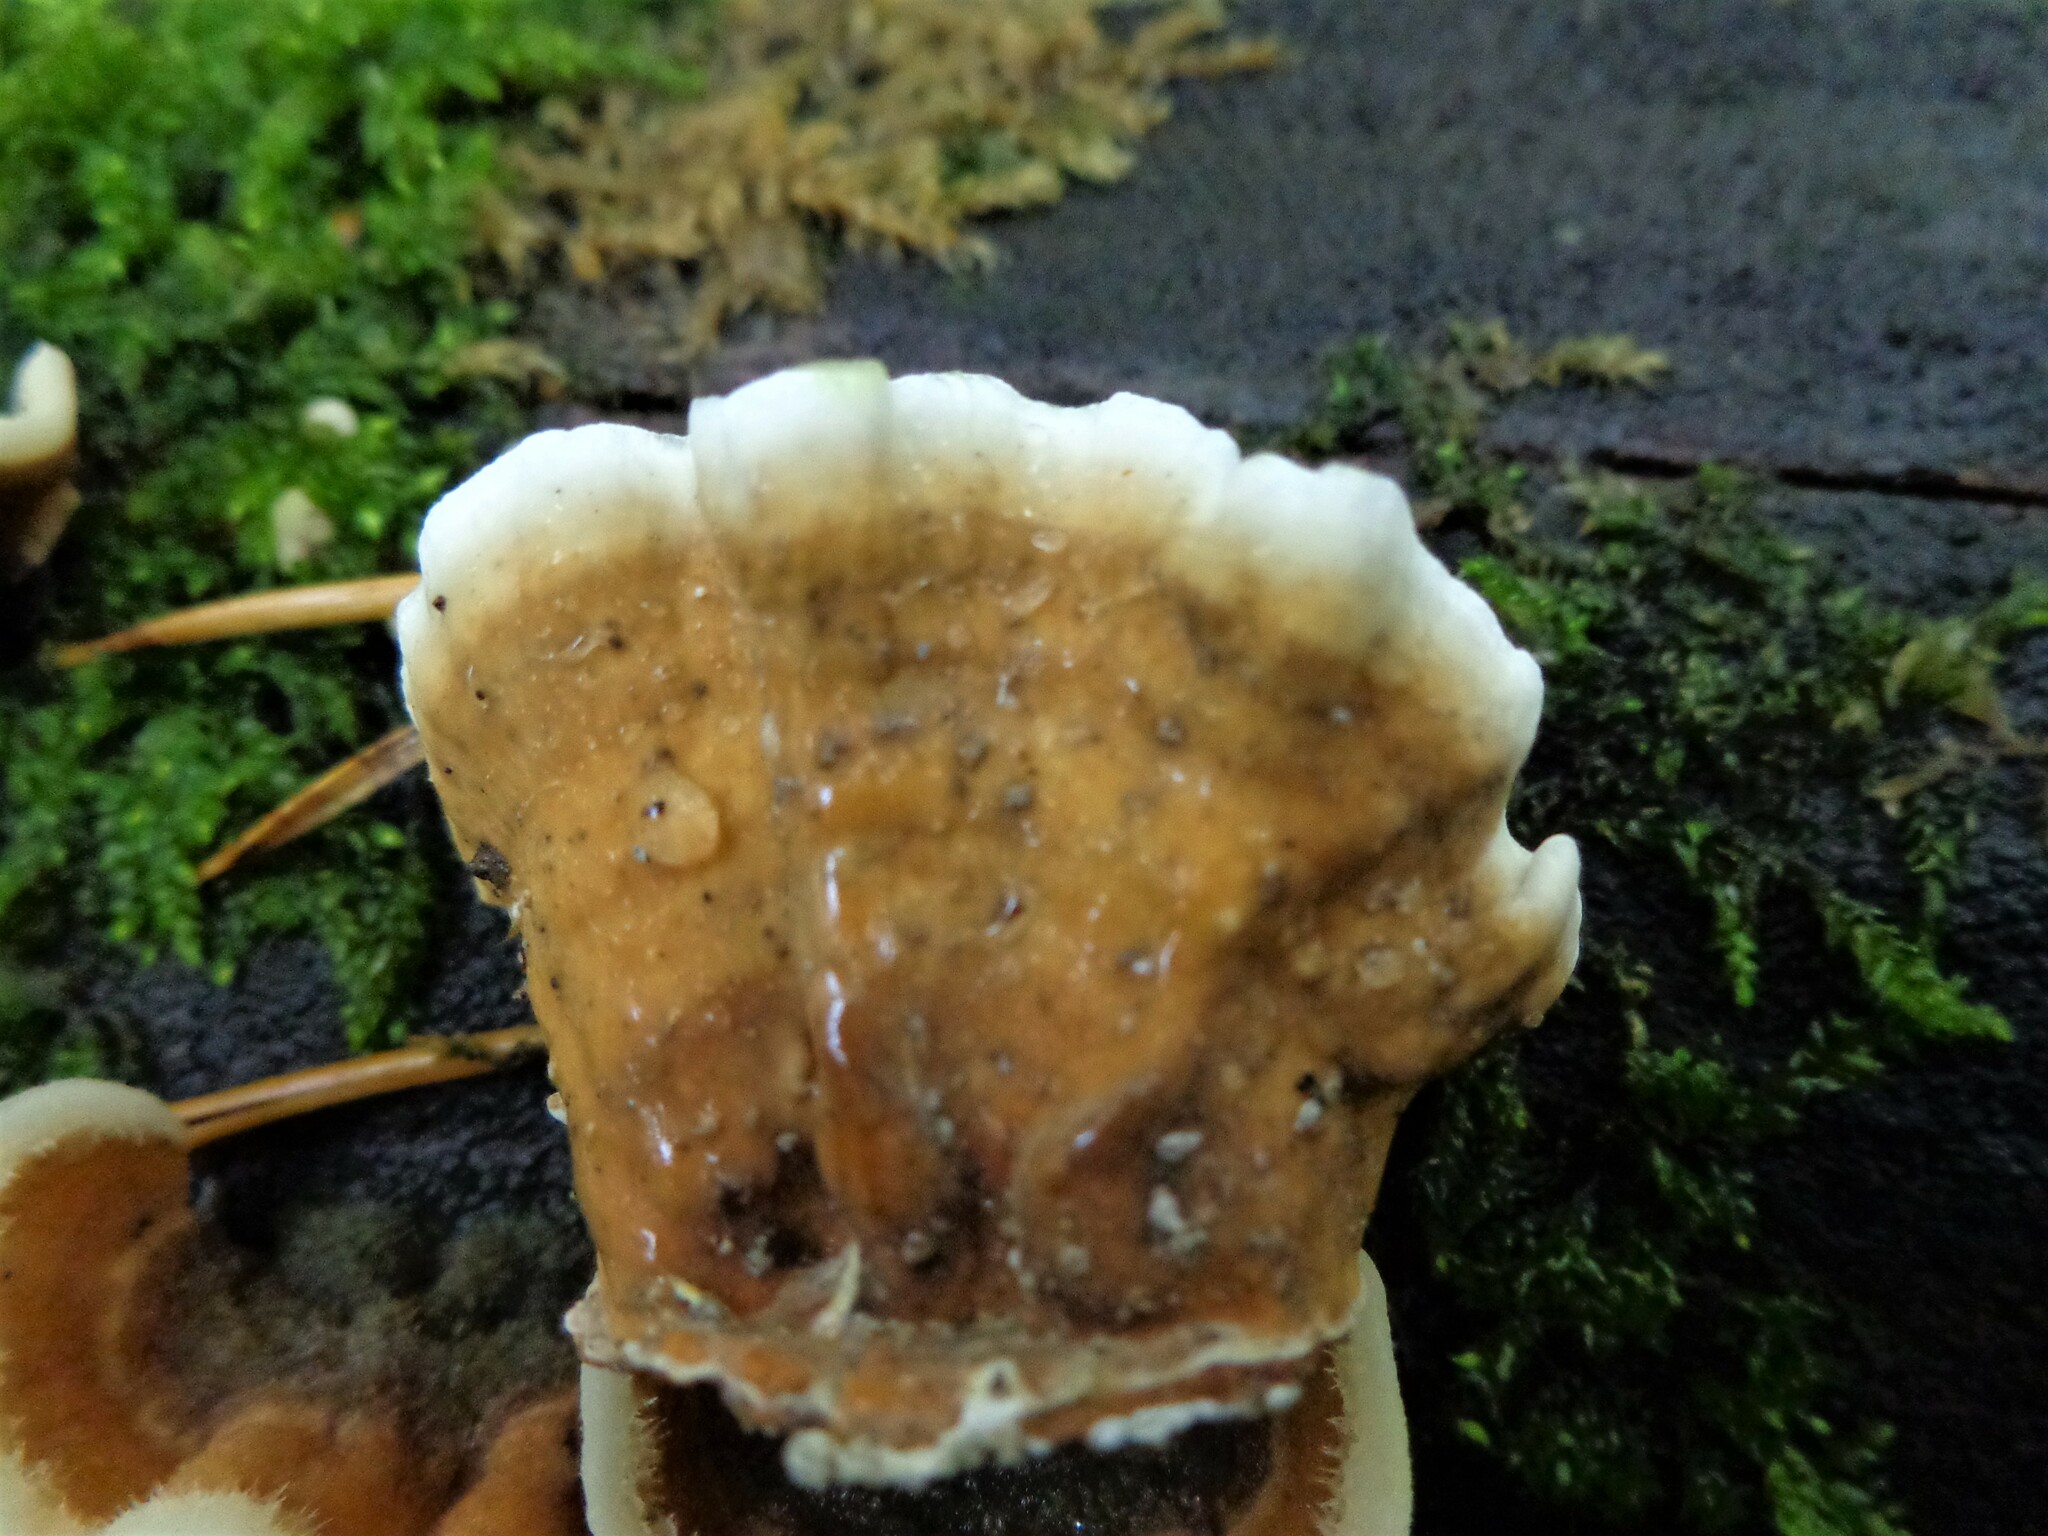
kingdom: Fungi
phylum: Basidiomycota
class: Agaricomycetes
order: Russulales
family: Hericiaceae
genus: Laxitextum
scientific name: Laxitextum bicolor
